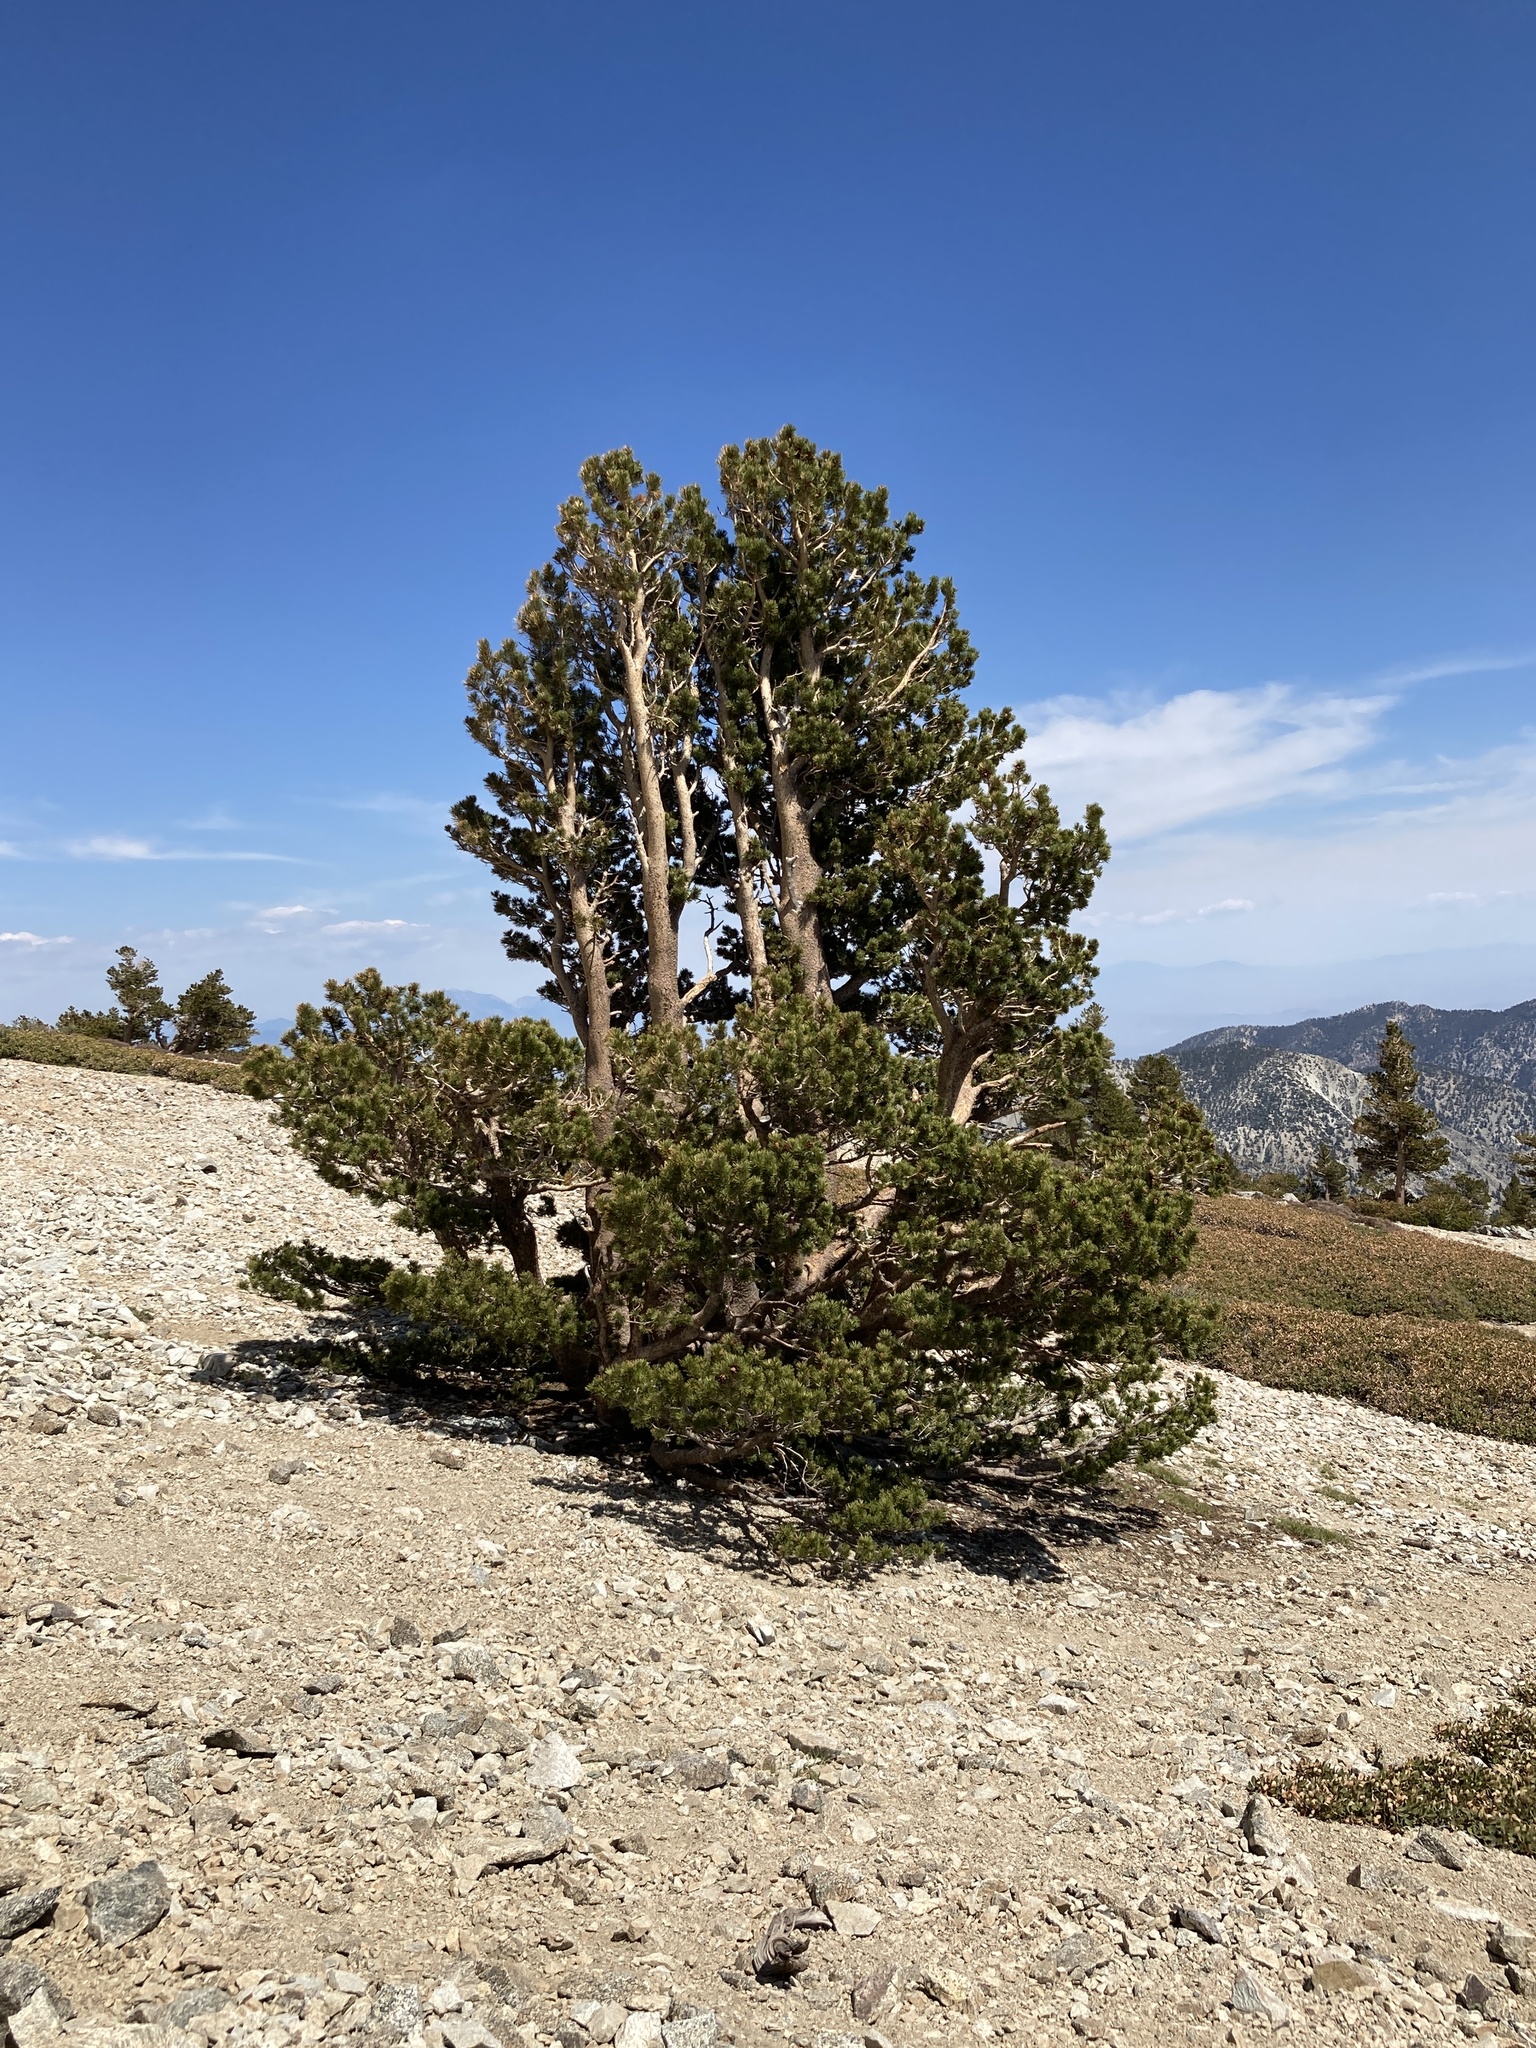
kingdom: Plantae
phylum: Tracheophyta
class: Pinopsida
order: Pinales
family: Pinaceae
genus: Pinus
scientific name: Pinus flexilis
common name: Limber pine
